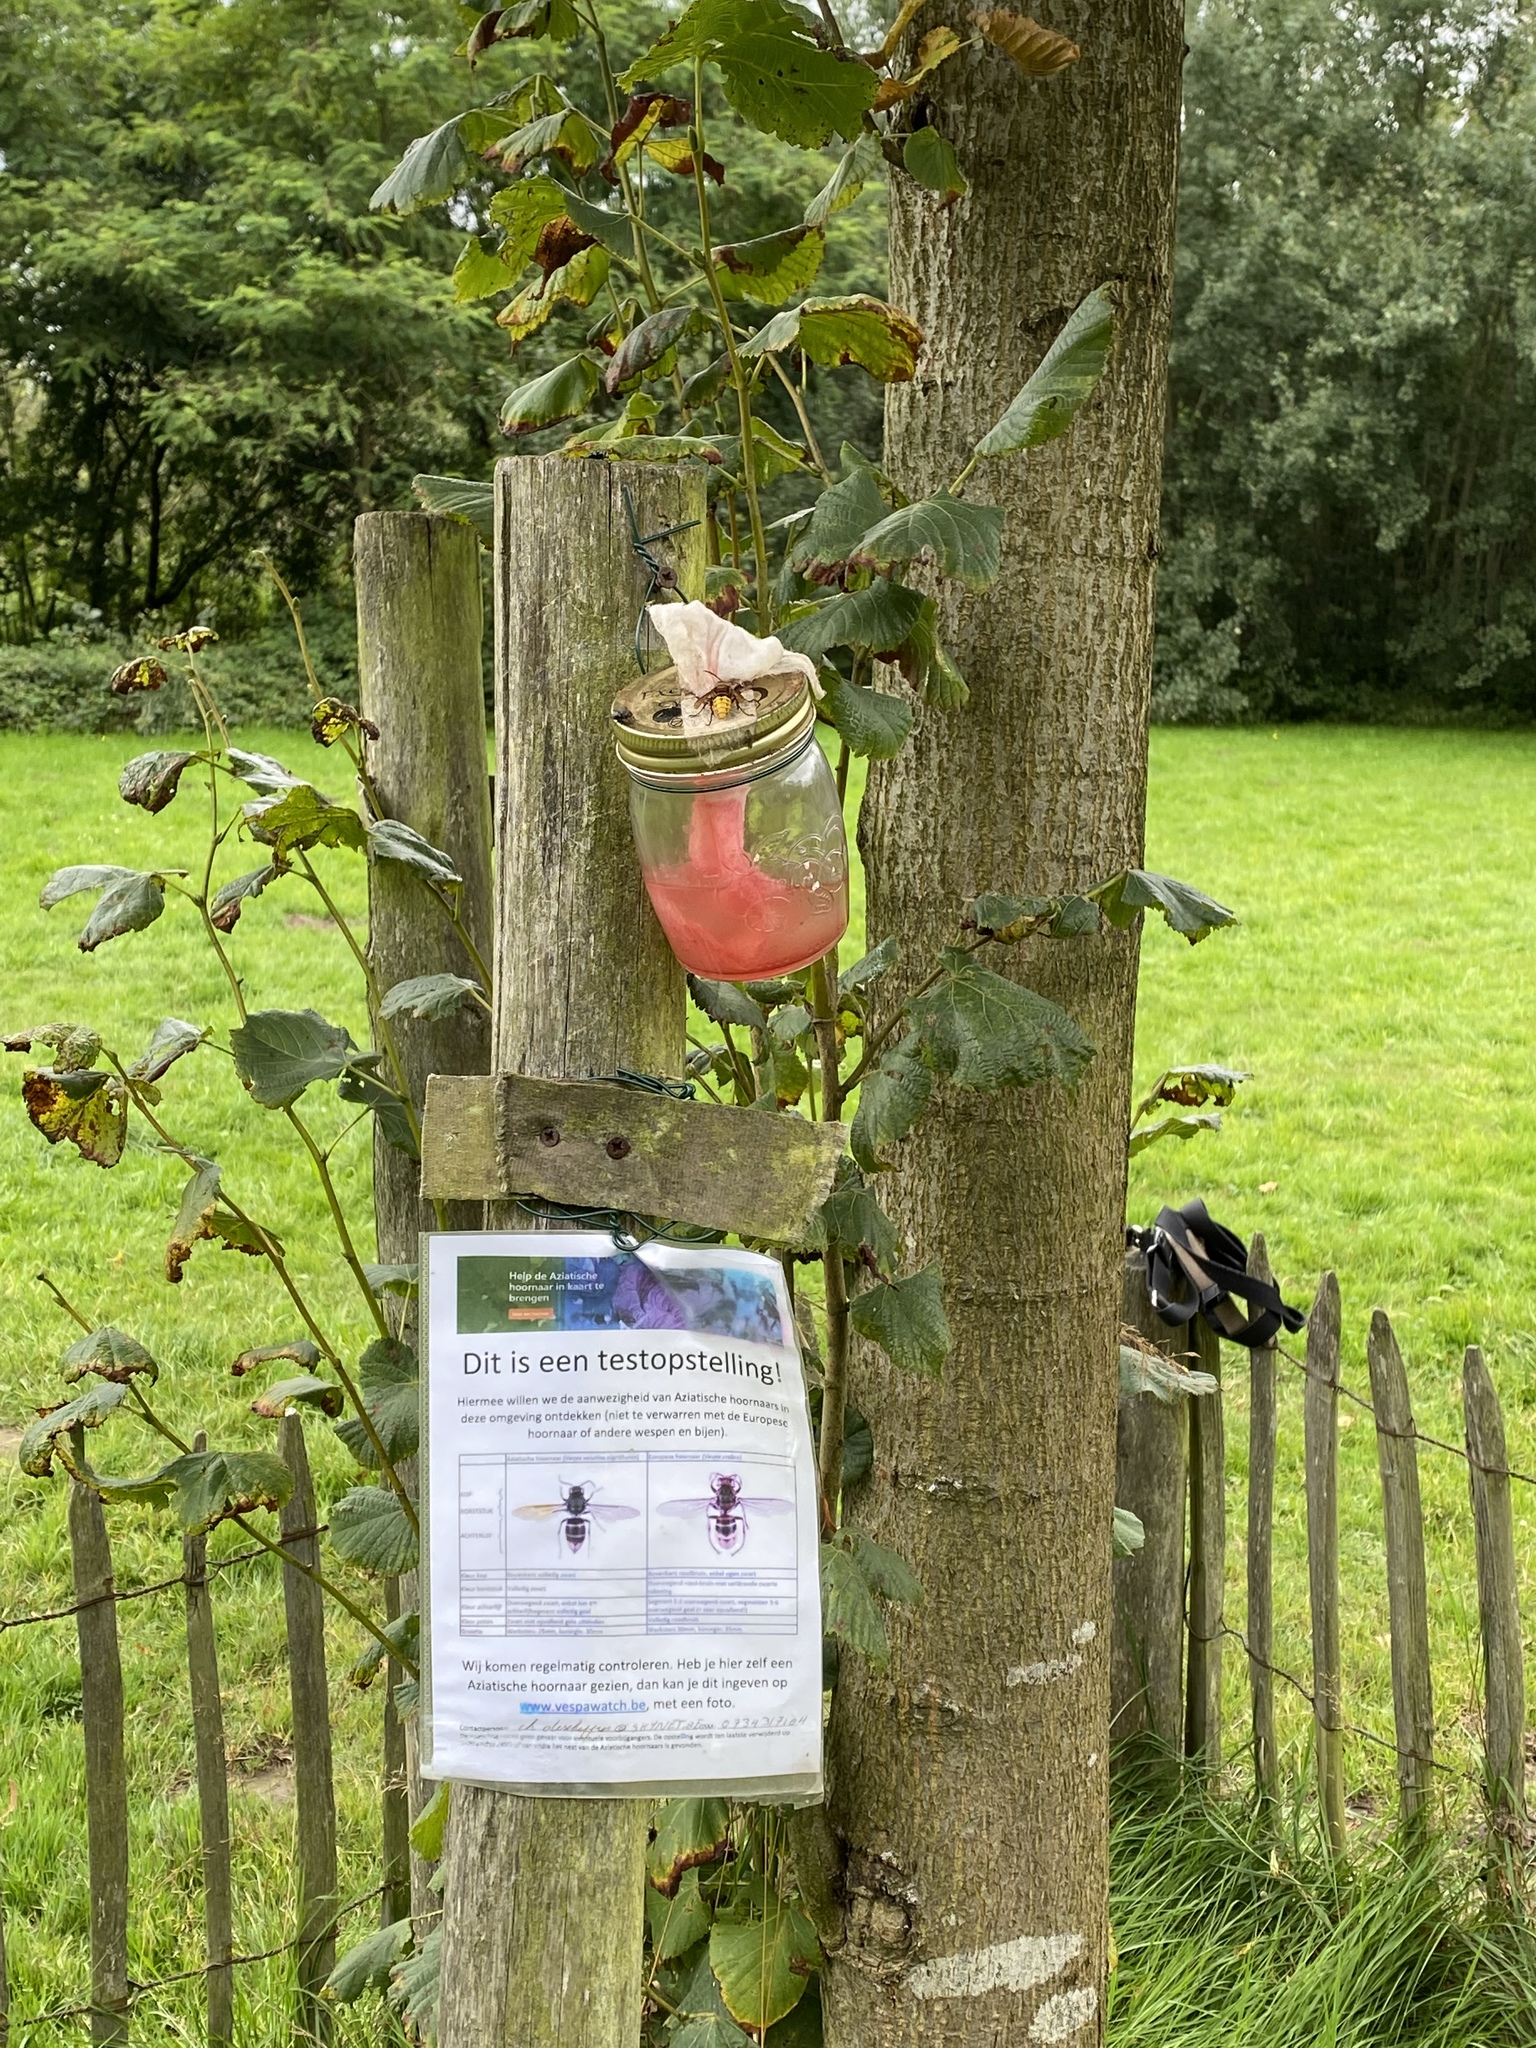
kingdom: Animalia
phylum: Arthropoda
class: Insecta
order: Hymenoptera
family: Vespidae
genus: Vespa
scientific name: Vespa crabro
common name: Hornet
